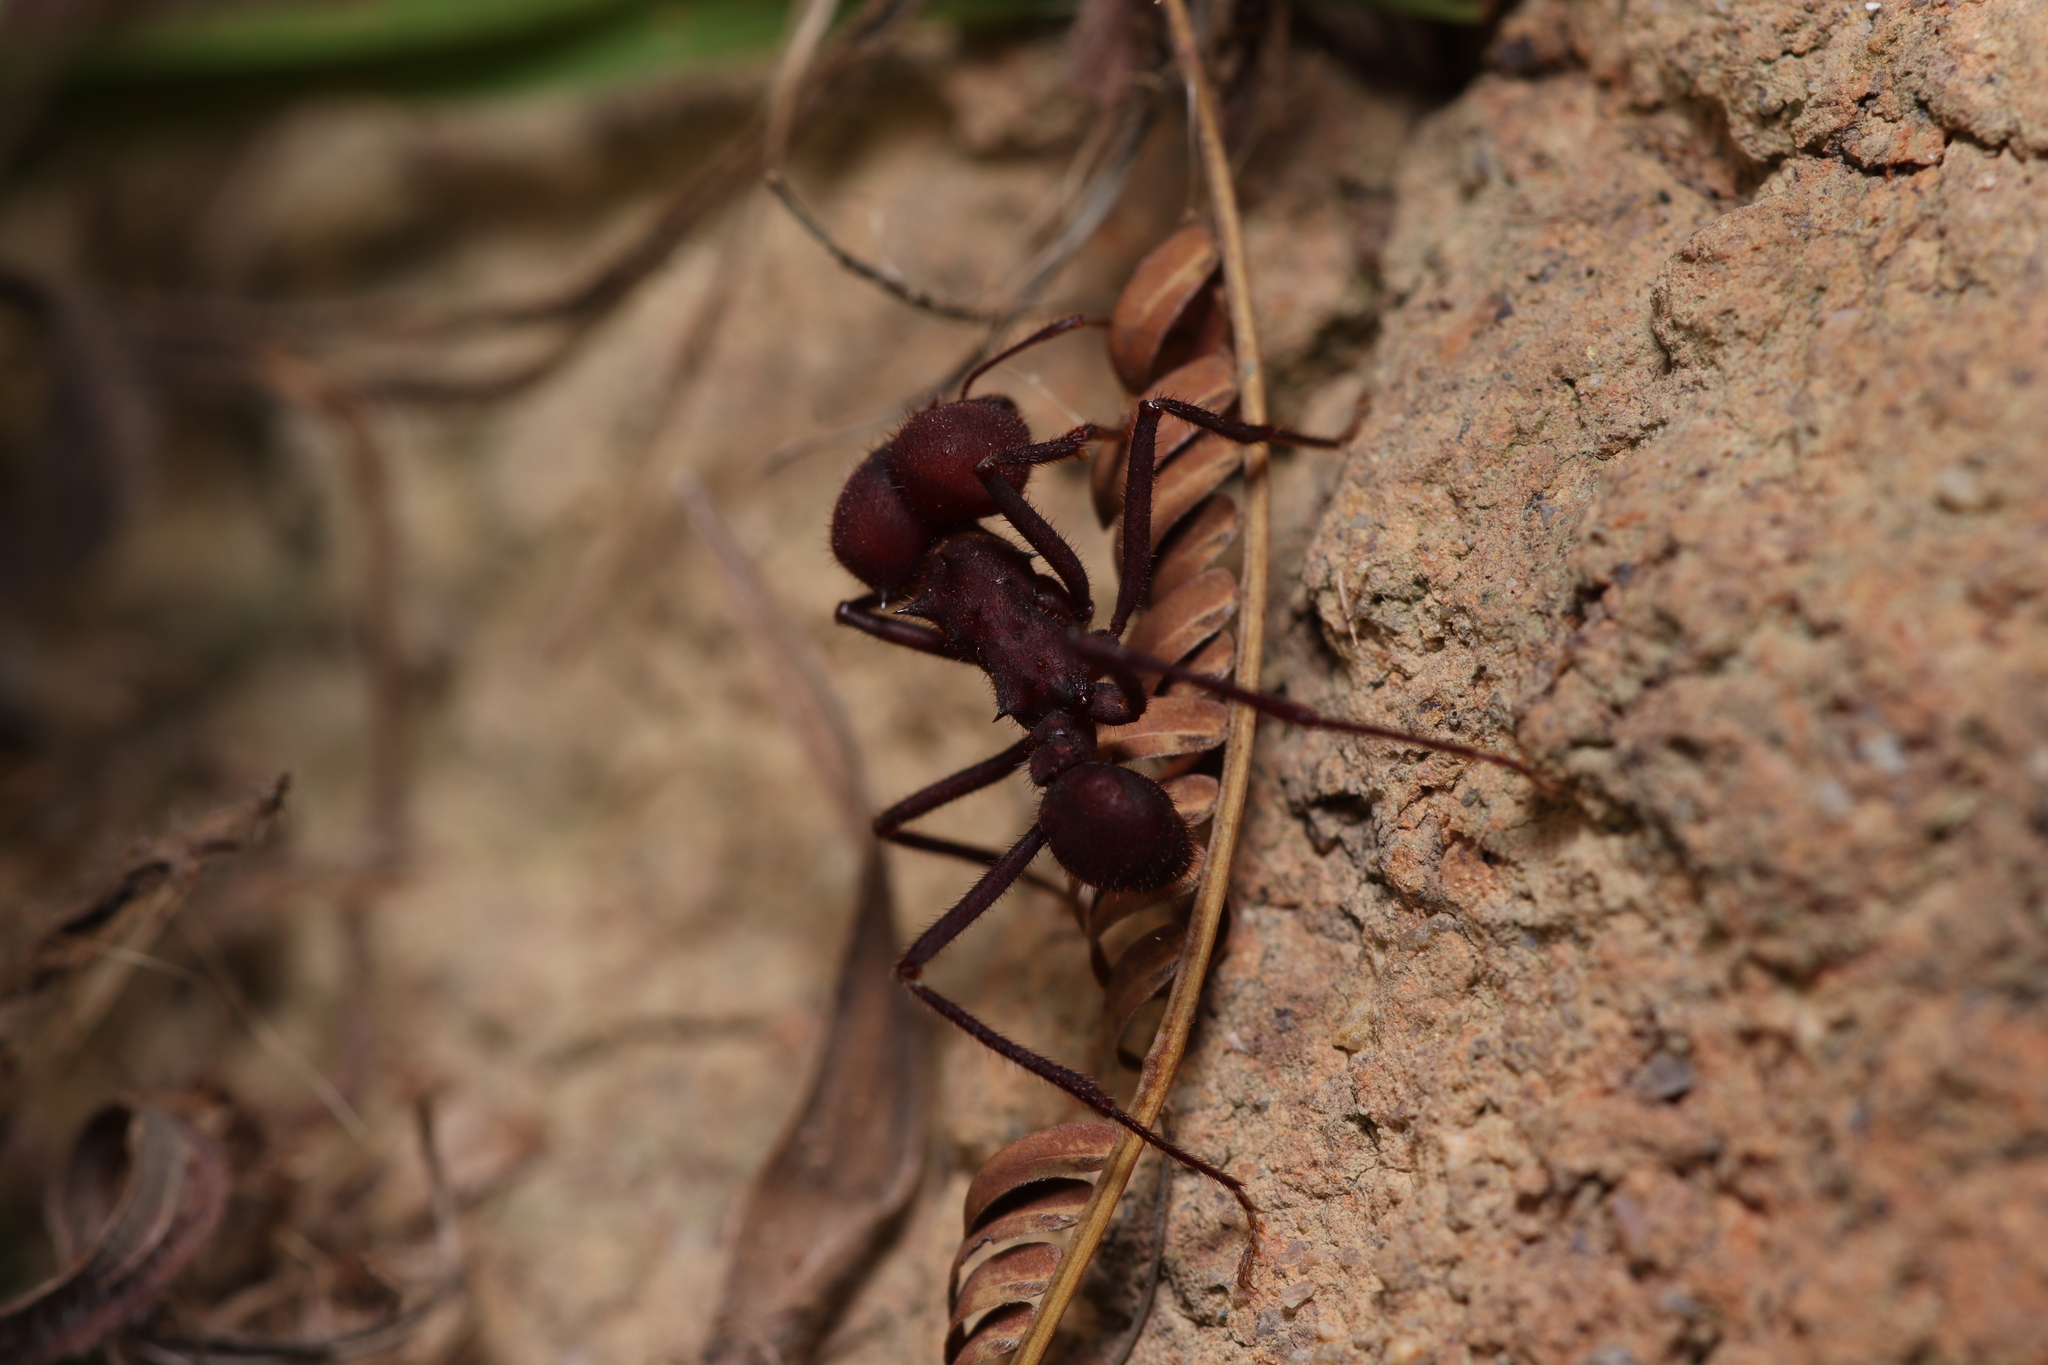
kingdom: Animalia
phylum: Arthropoda
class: Insecta
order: Hymenoptera
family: Formicidae
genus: Atta
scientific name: Atta sexdens
